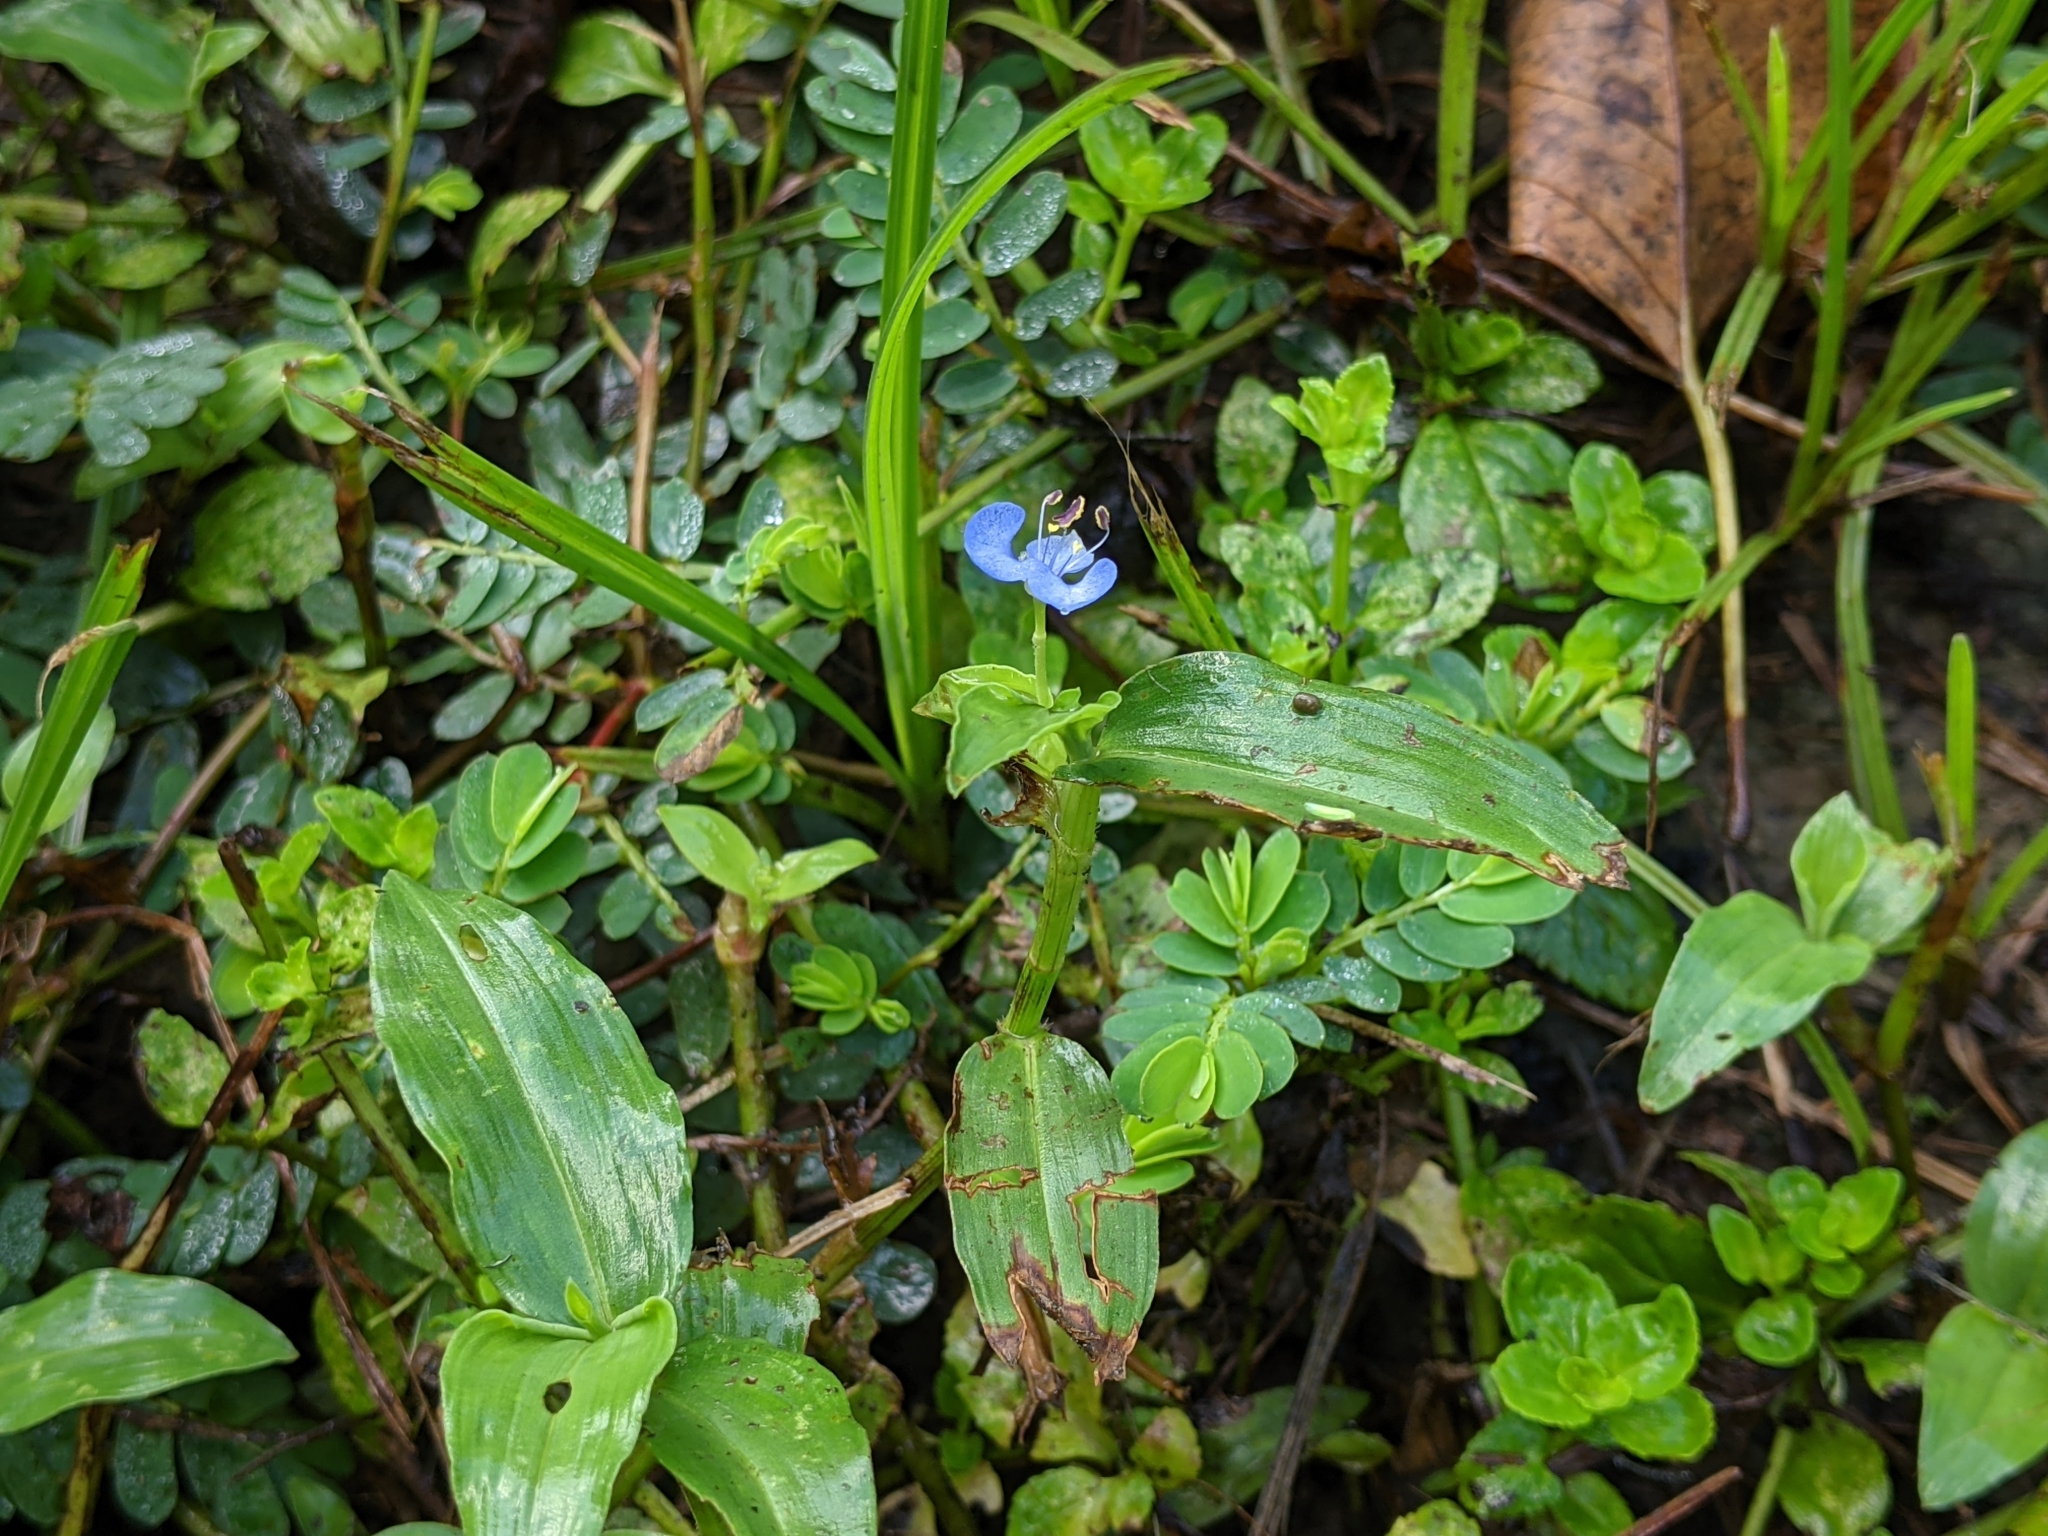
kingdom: Plantae
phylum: Tracheophyta
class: Liliopsida
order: Commelinales
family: Commelinaceae
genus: Commelina
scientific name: Commelina diffusa
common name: Climbing dayflower
